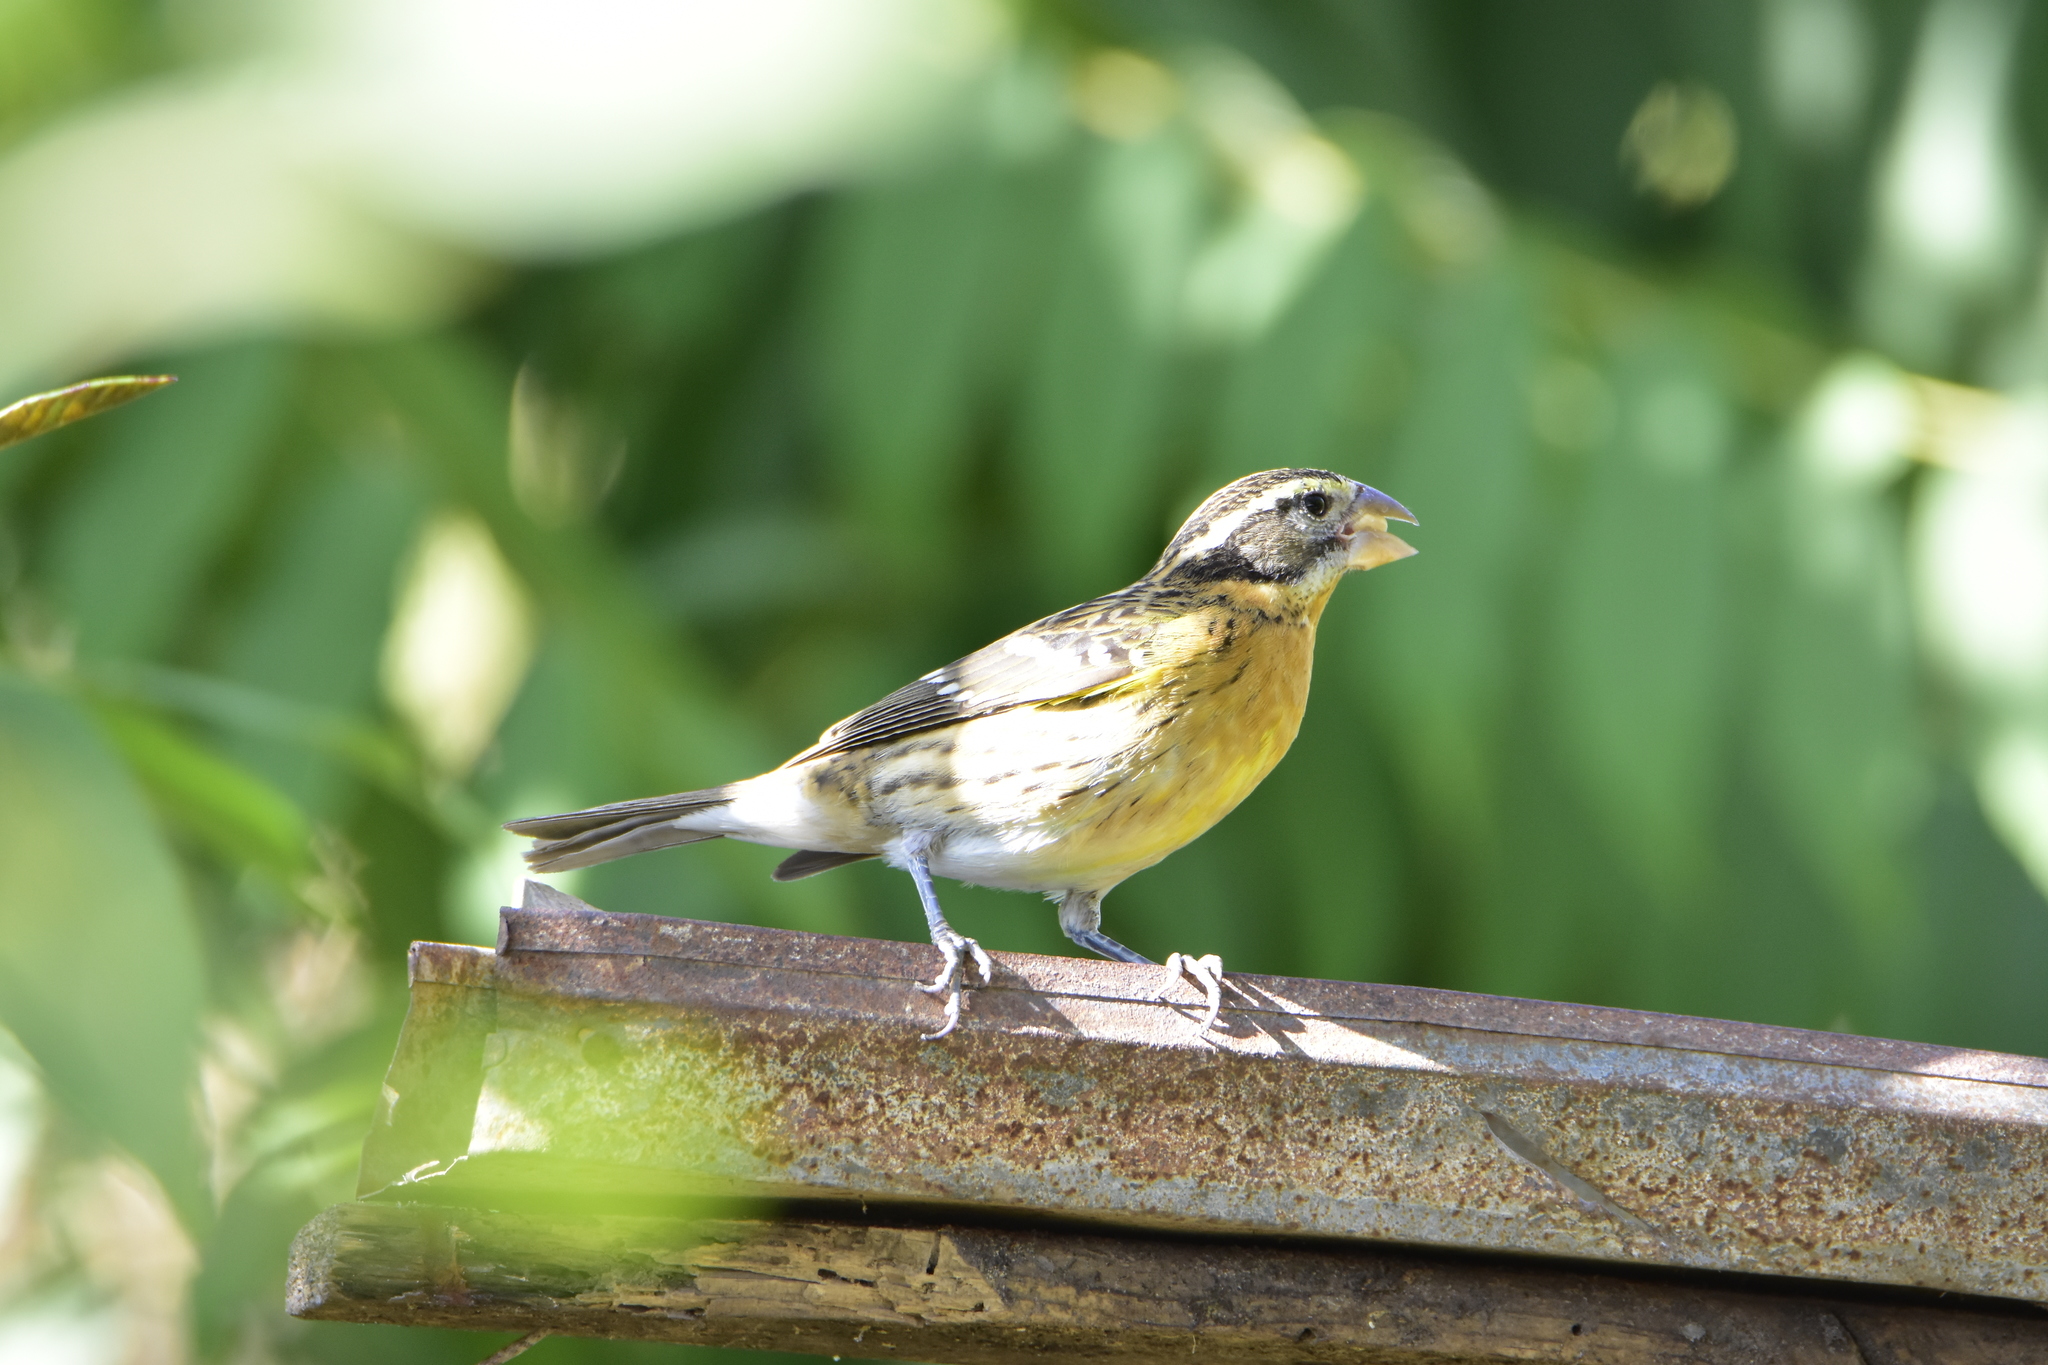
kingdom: Animalia
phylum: Chordata
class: Aves
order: Passeriformes
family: Cardinalidae
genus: Pheucticus
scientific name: Pheucticus melanocephalus
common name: Black-headed grosbeak
